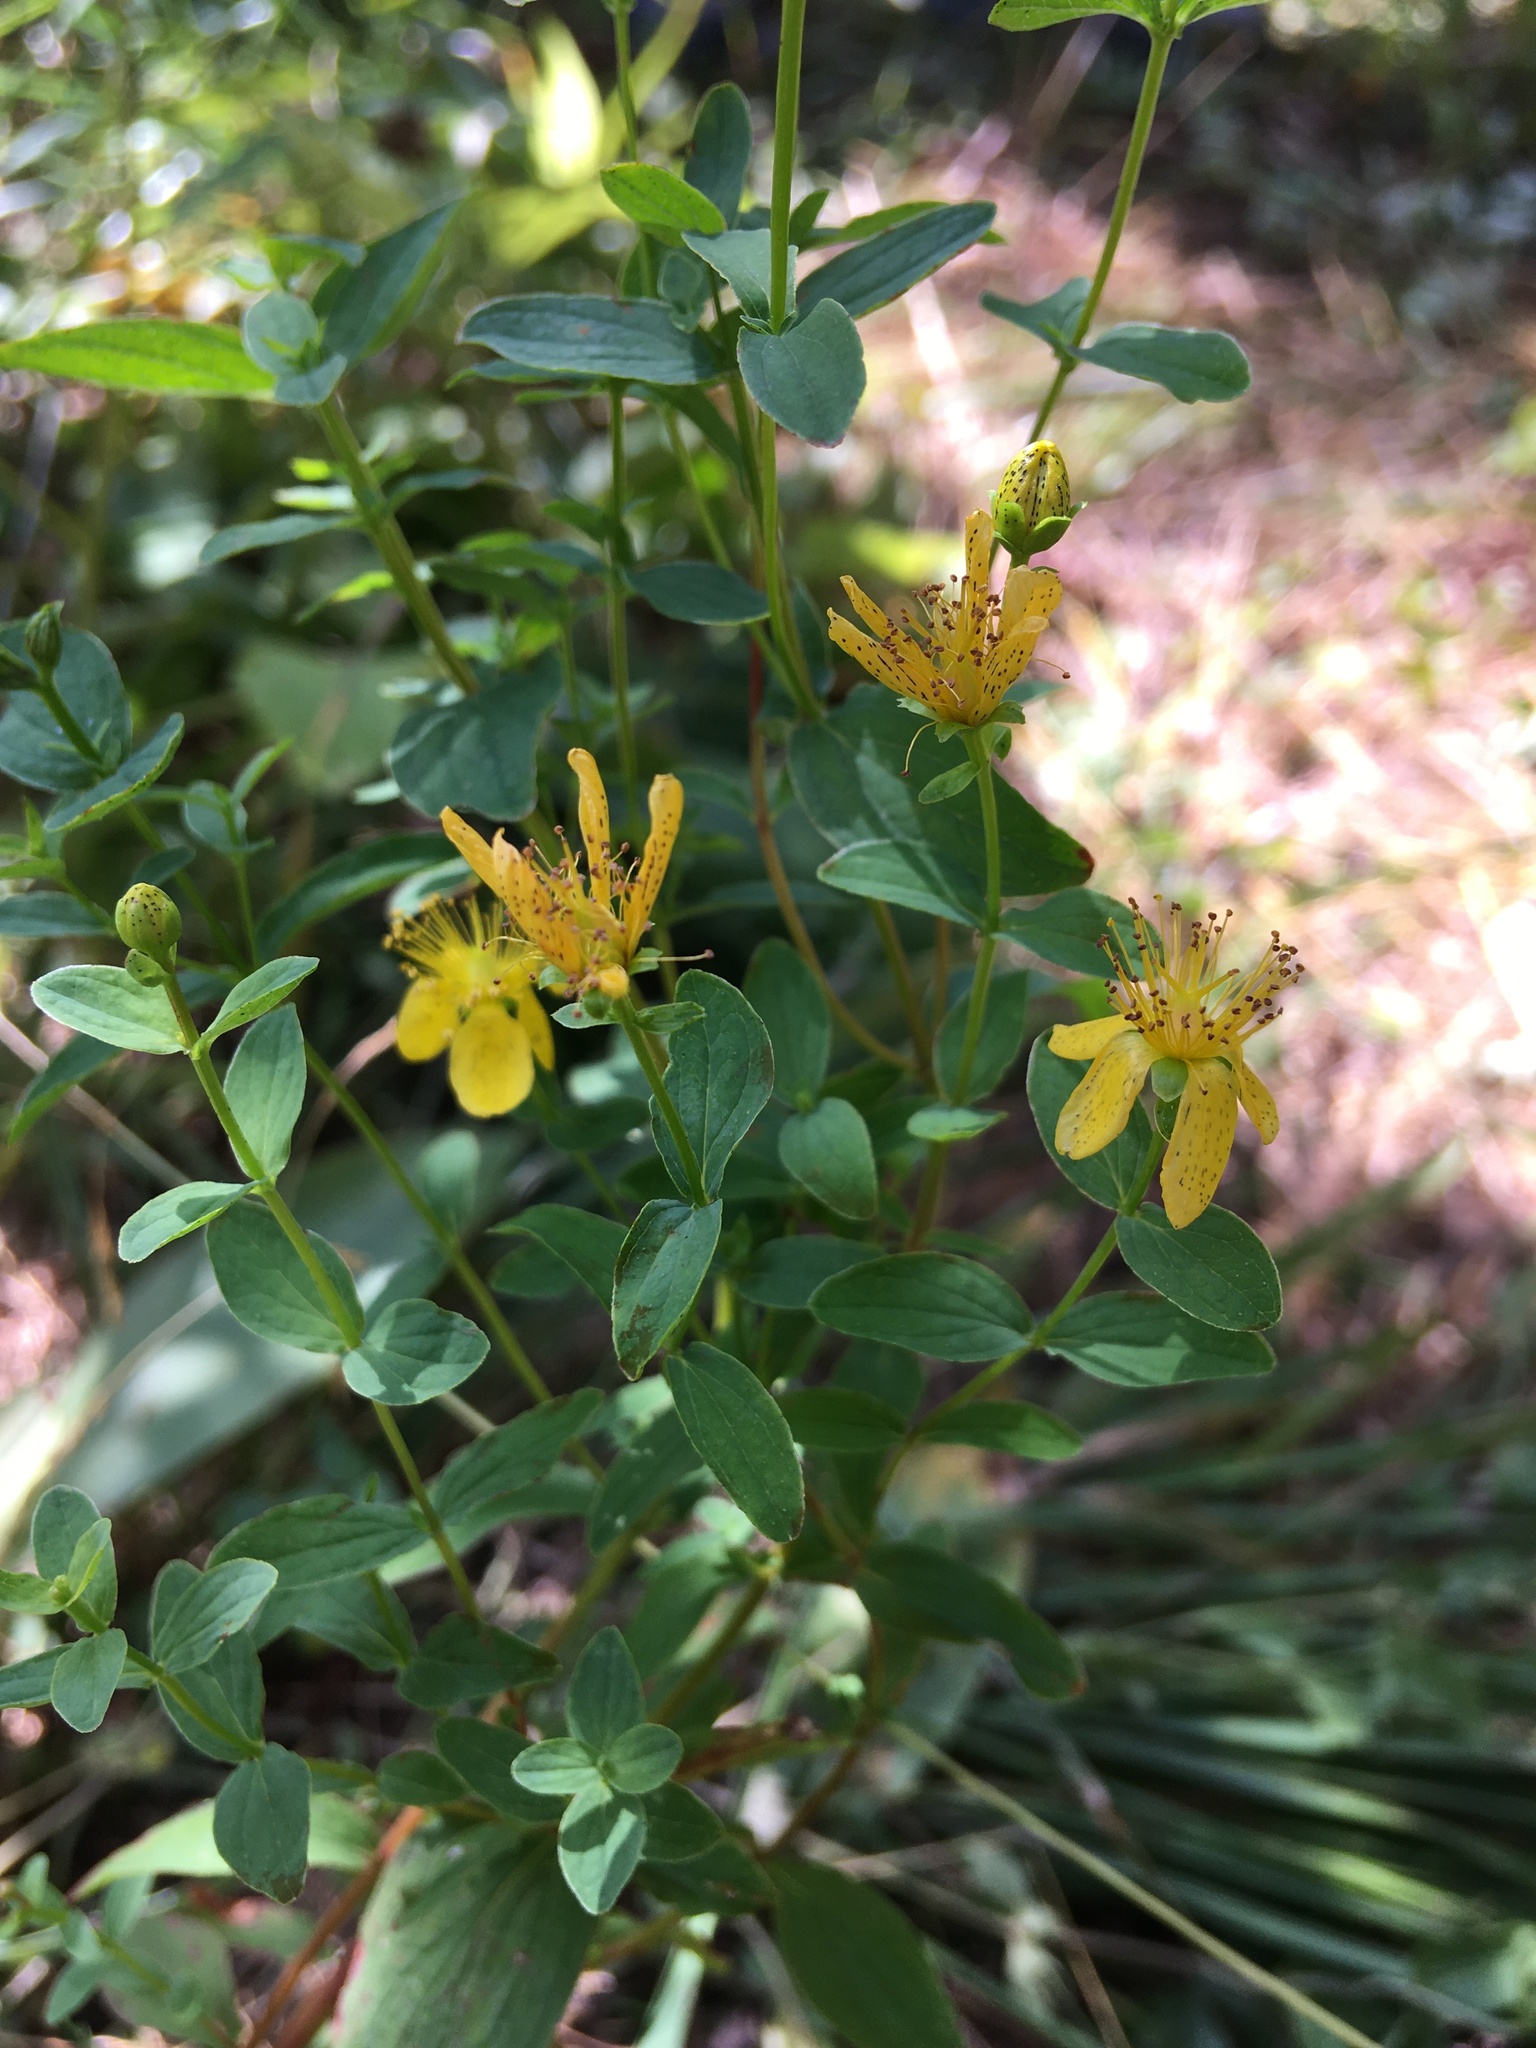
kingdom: Plantae
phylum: Tracheophyta
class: Magnoliopsida
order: Malpighiales
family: Hypericaceae
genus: Hypericum
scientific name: Hypericum maculatum
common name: Imperforate st. john's-wort
